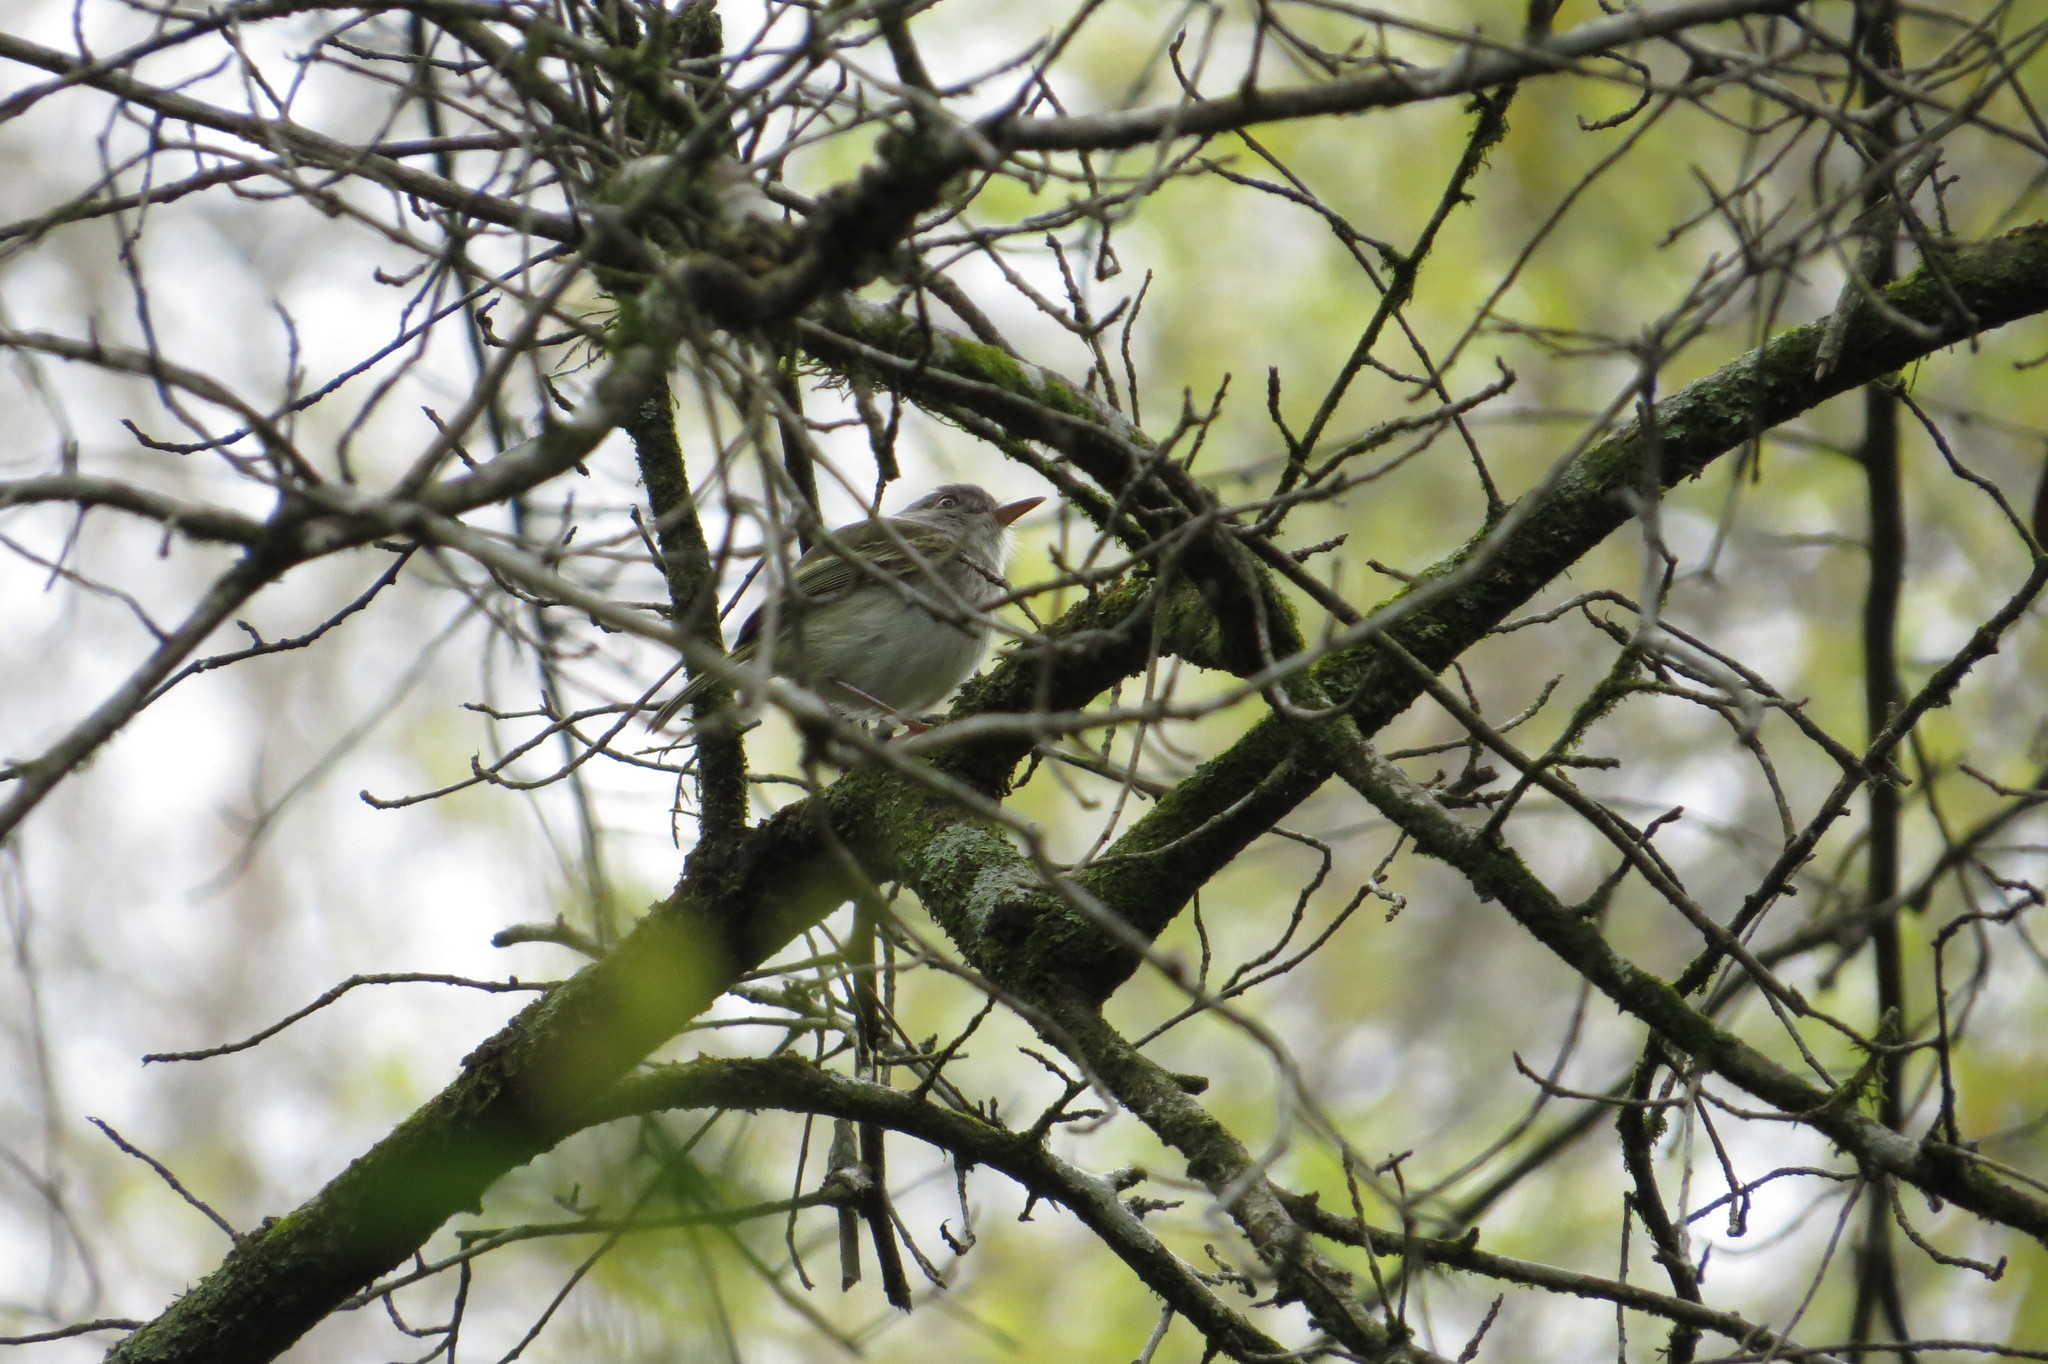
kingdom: Animalia
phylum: Chordata
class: Aves
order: Passeriformes
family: Tyrannidae
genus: Hemitriccus
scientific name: Hemitriccus margaritaceiventer
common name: Pearly-vented tody-tyrant
